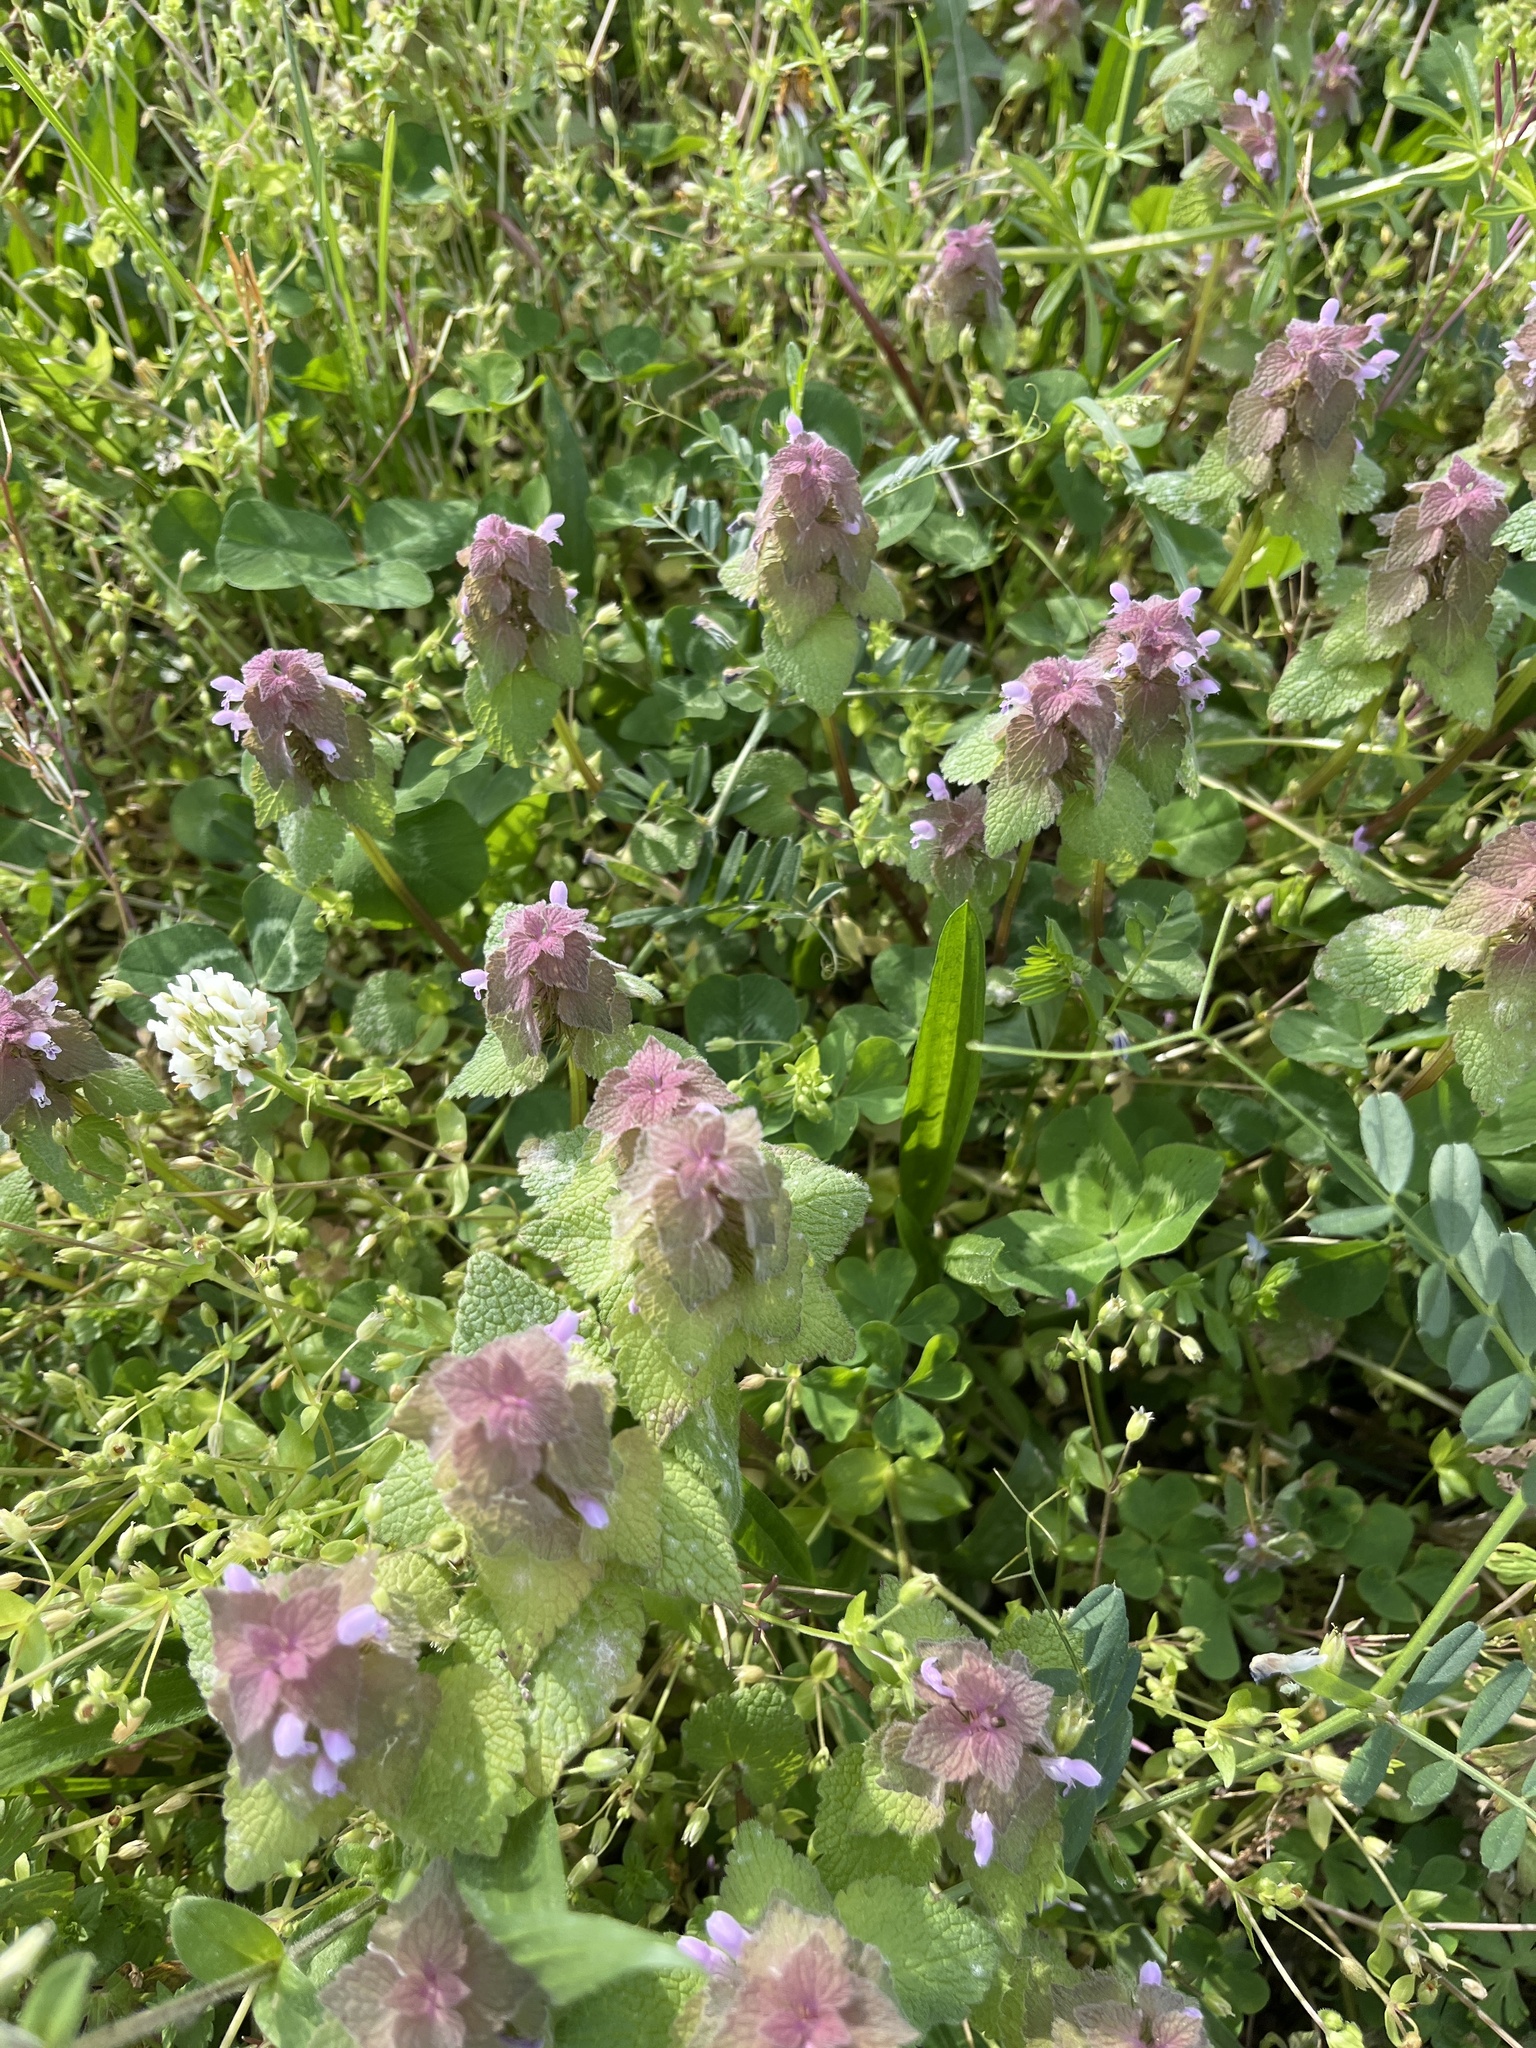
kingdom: Plantae
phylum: Tracheophyta
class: Magnoliopsida
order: Lamiales
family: Lamiaceae
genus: Lamium
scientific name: Lamium purpureum
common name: Red dead-nettle
